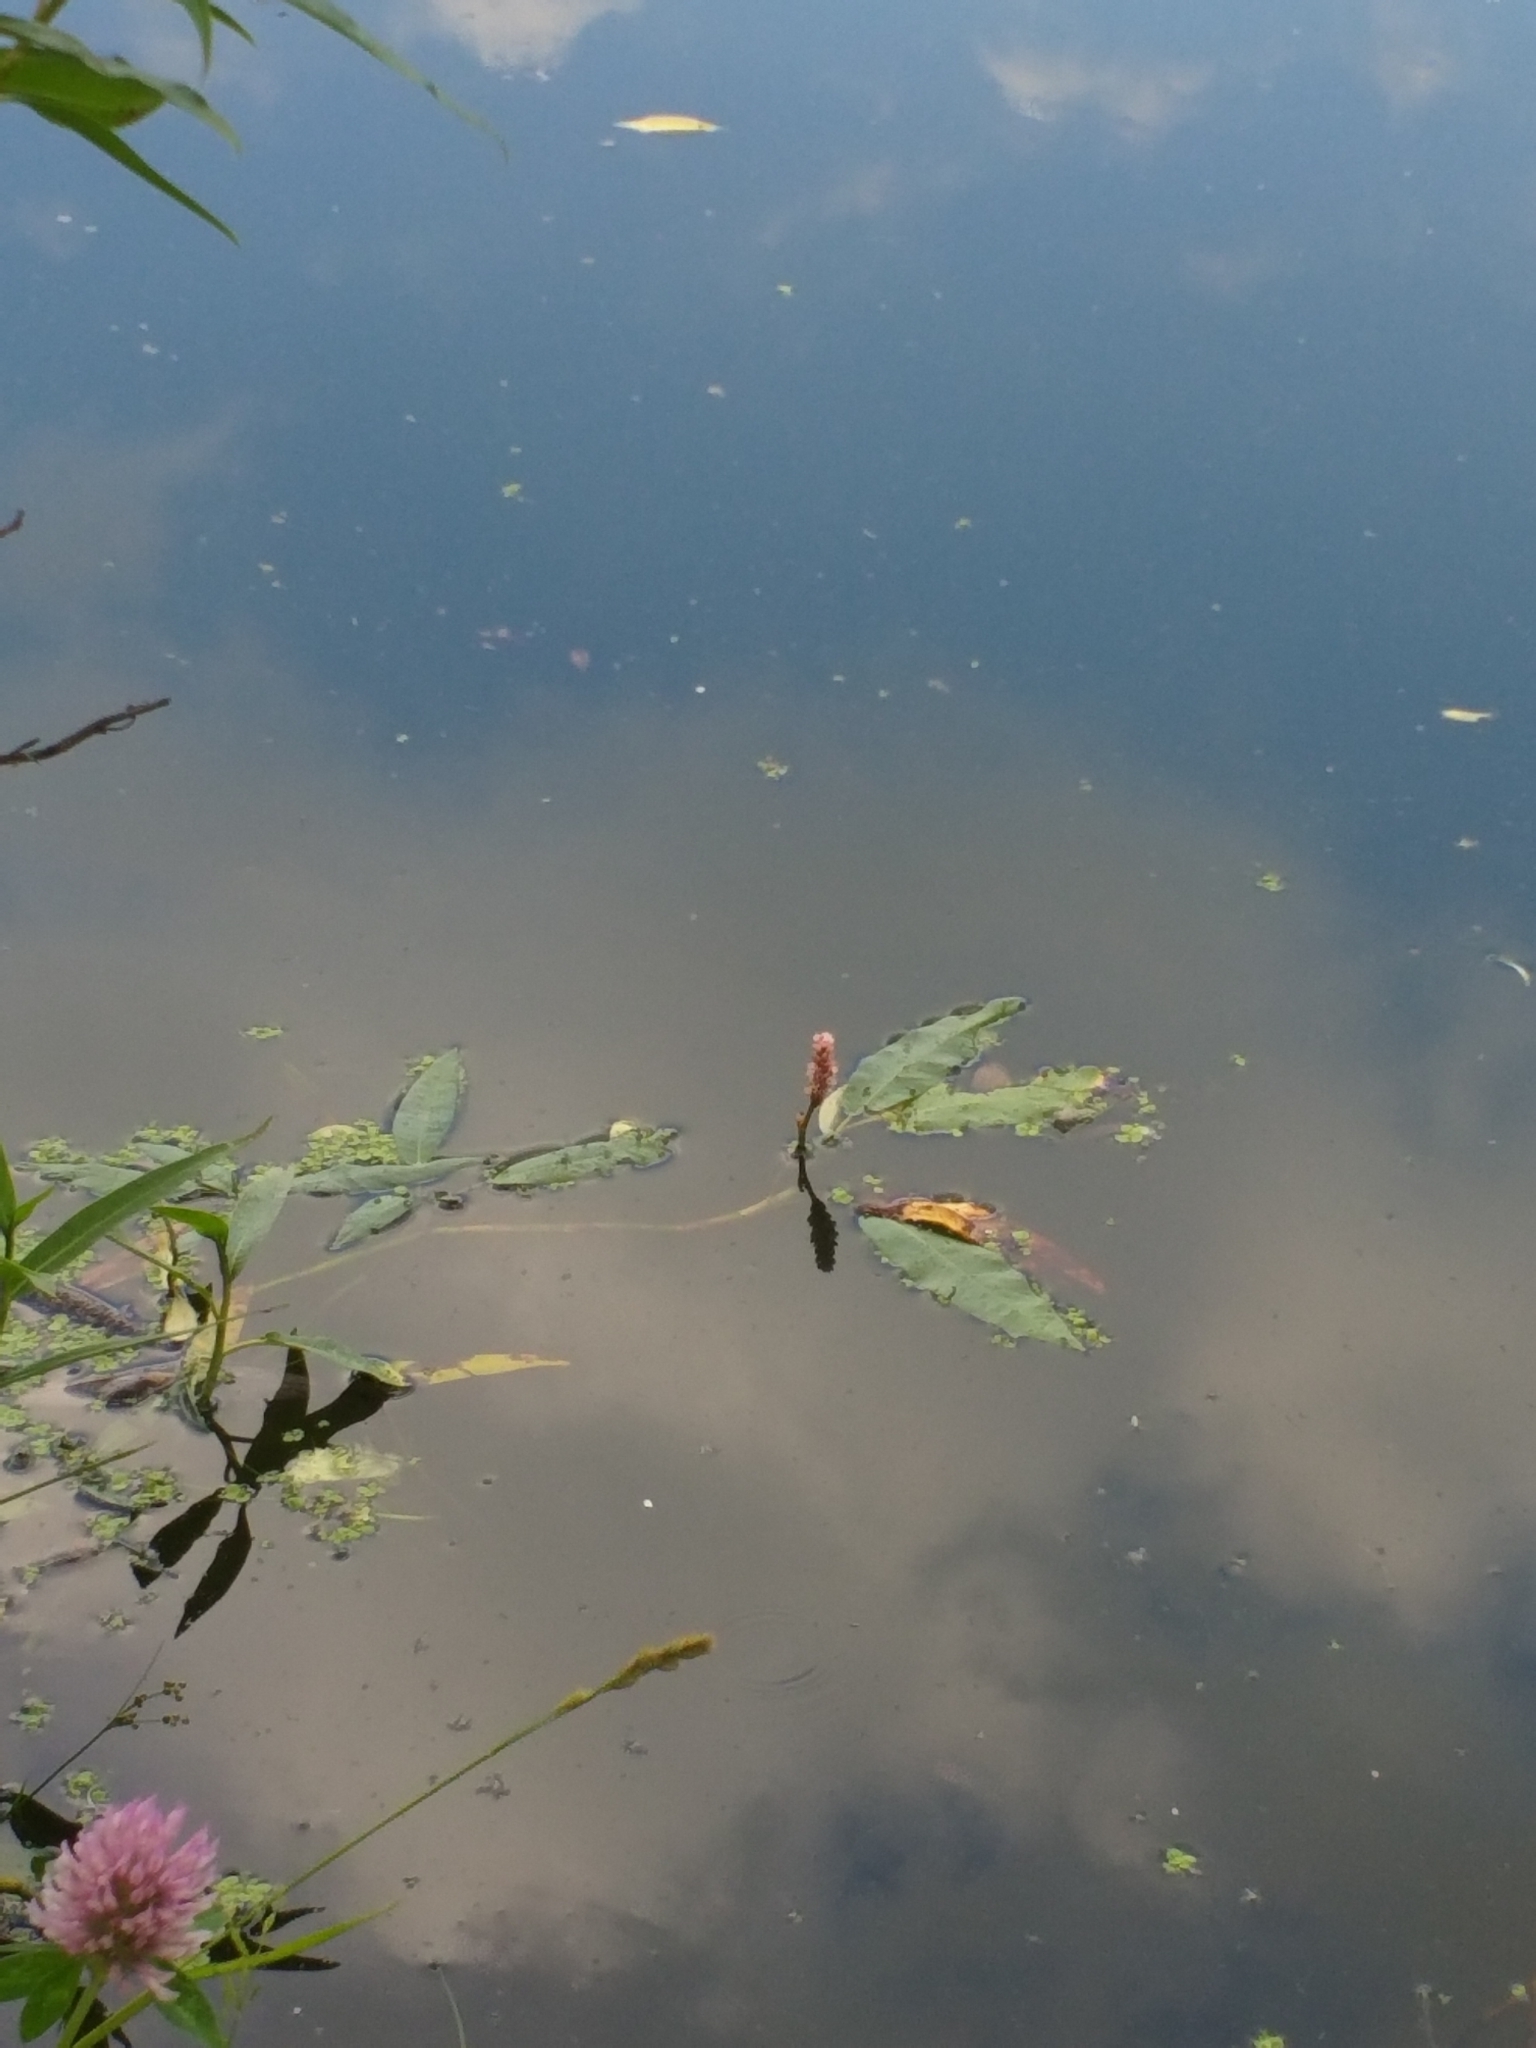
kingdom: Plantae
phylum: Tracheophyta
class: Magnoliopsida
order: Caryophyllales
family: Polygonaceae
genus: Persicaria
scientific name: Persicaria amphibia
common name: Amphibious bistort
